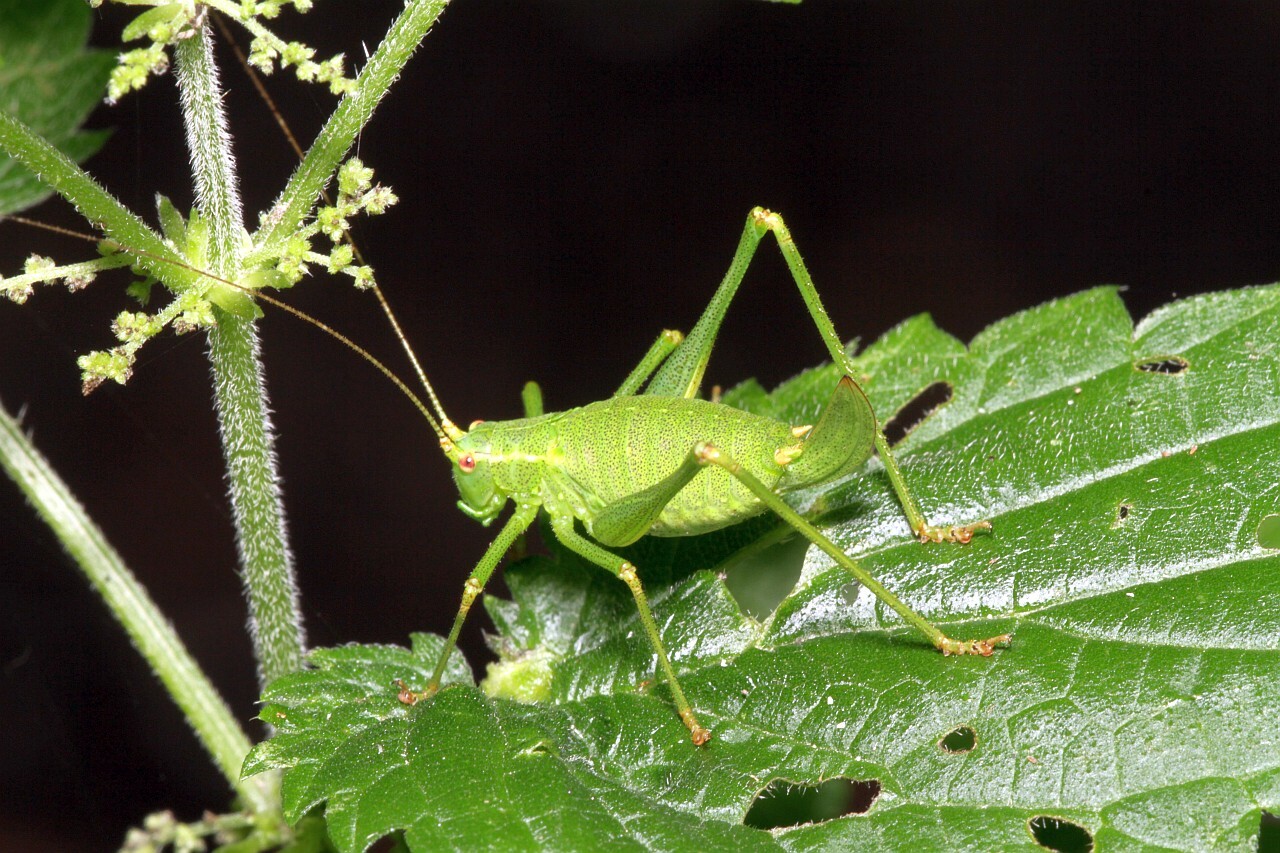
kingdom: Animalia
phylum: Arthropoda
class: Insecta
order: Orthoptera
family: Tettigoniidae
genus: Leptophyes
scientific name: Leptophyes punctatissima
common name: Speckled bush-cricket
